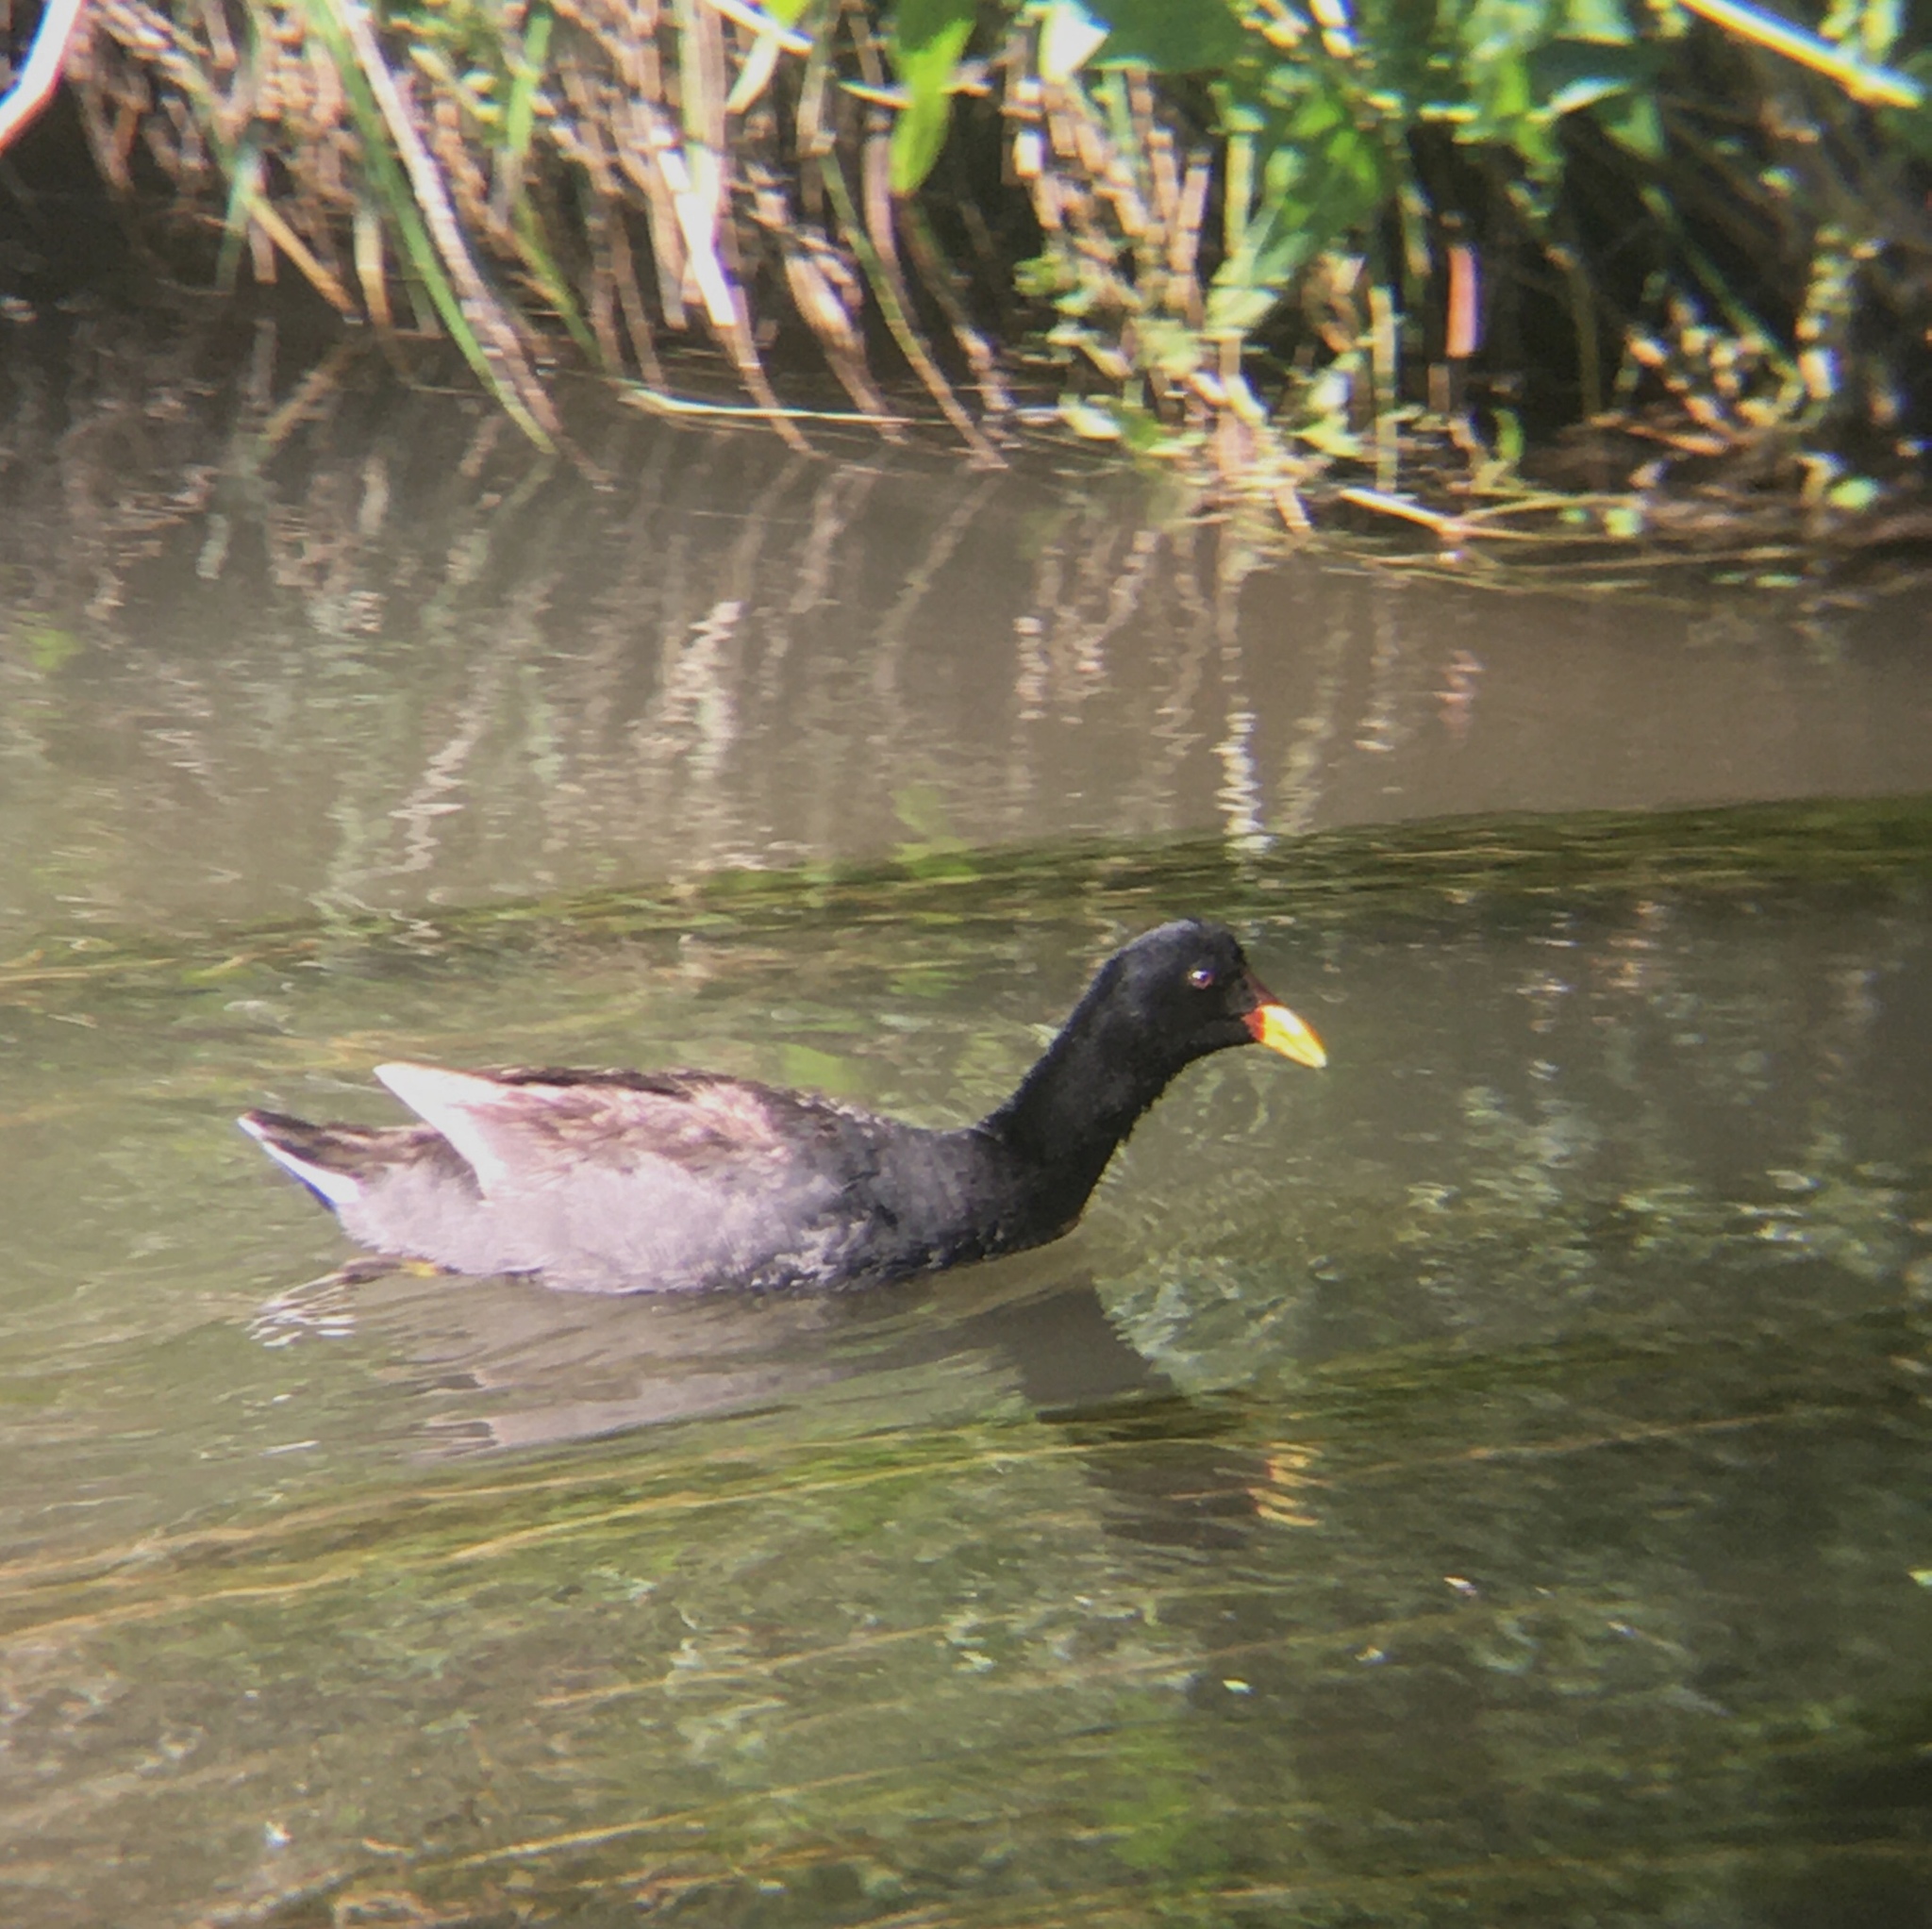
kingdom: Animalia
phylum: Chordata
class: Aves
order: Gruiformes
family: Rallidae
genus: Fulica
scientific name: Fulica rufifrons
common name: Red-fronted coot
